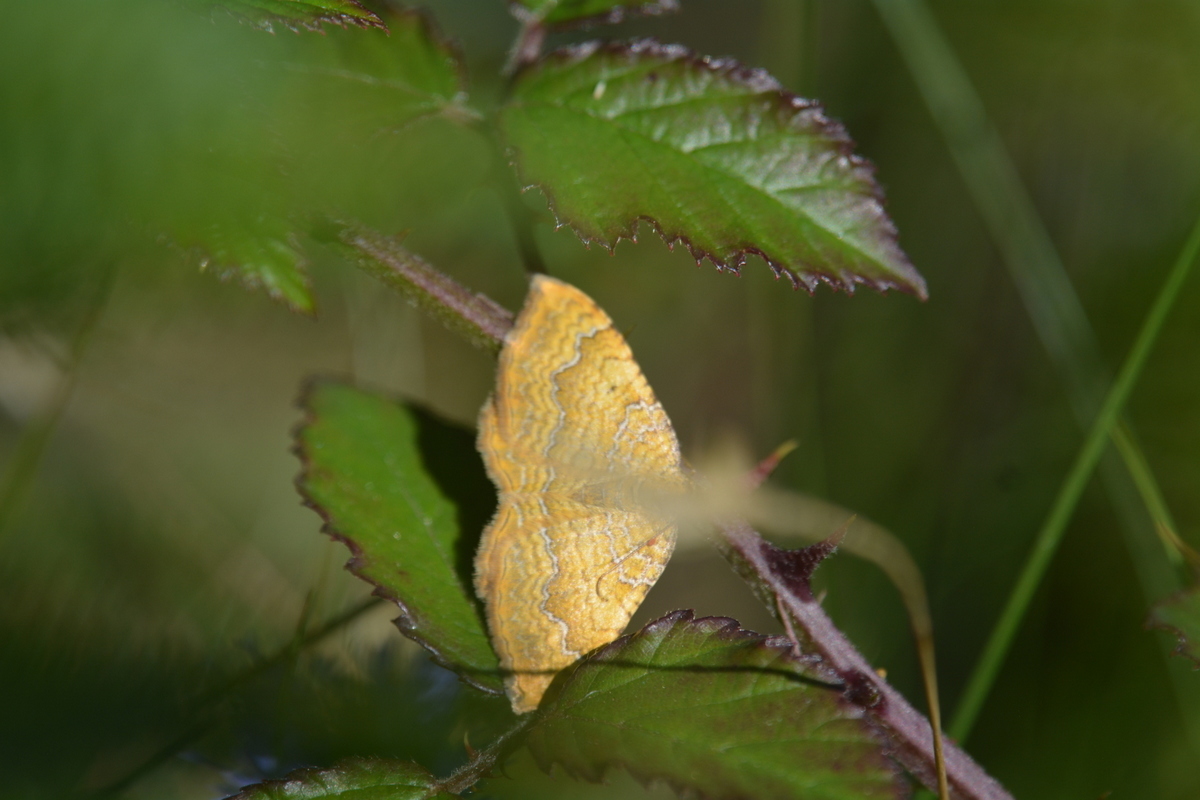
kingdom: Animalia
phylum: Arthropoda
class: Insecta
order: Lepidoptera
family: Geometridae
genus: Camptogramma
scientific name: Camptogramma bilineata
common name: Yellow shell
